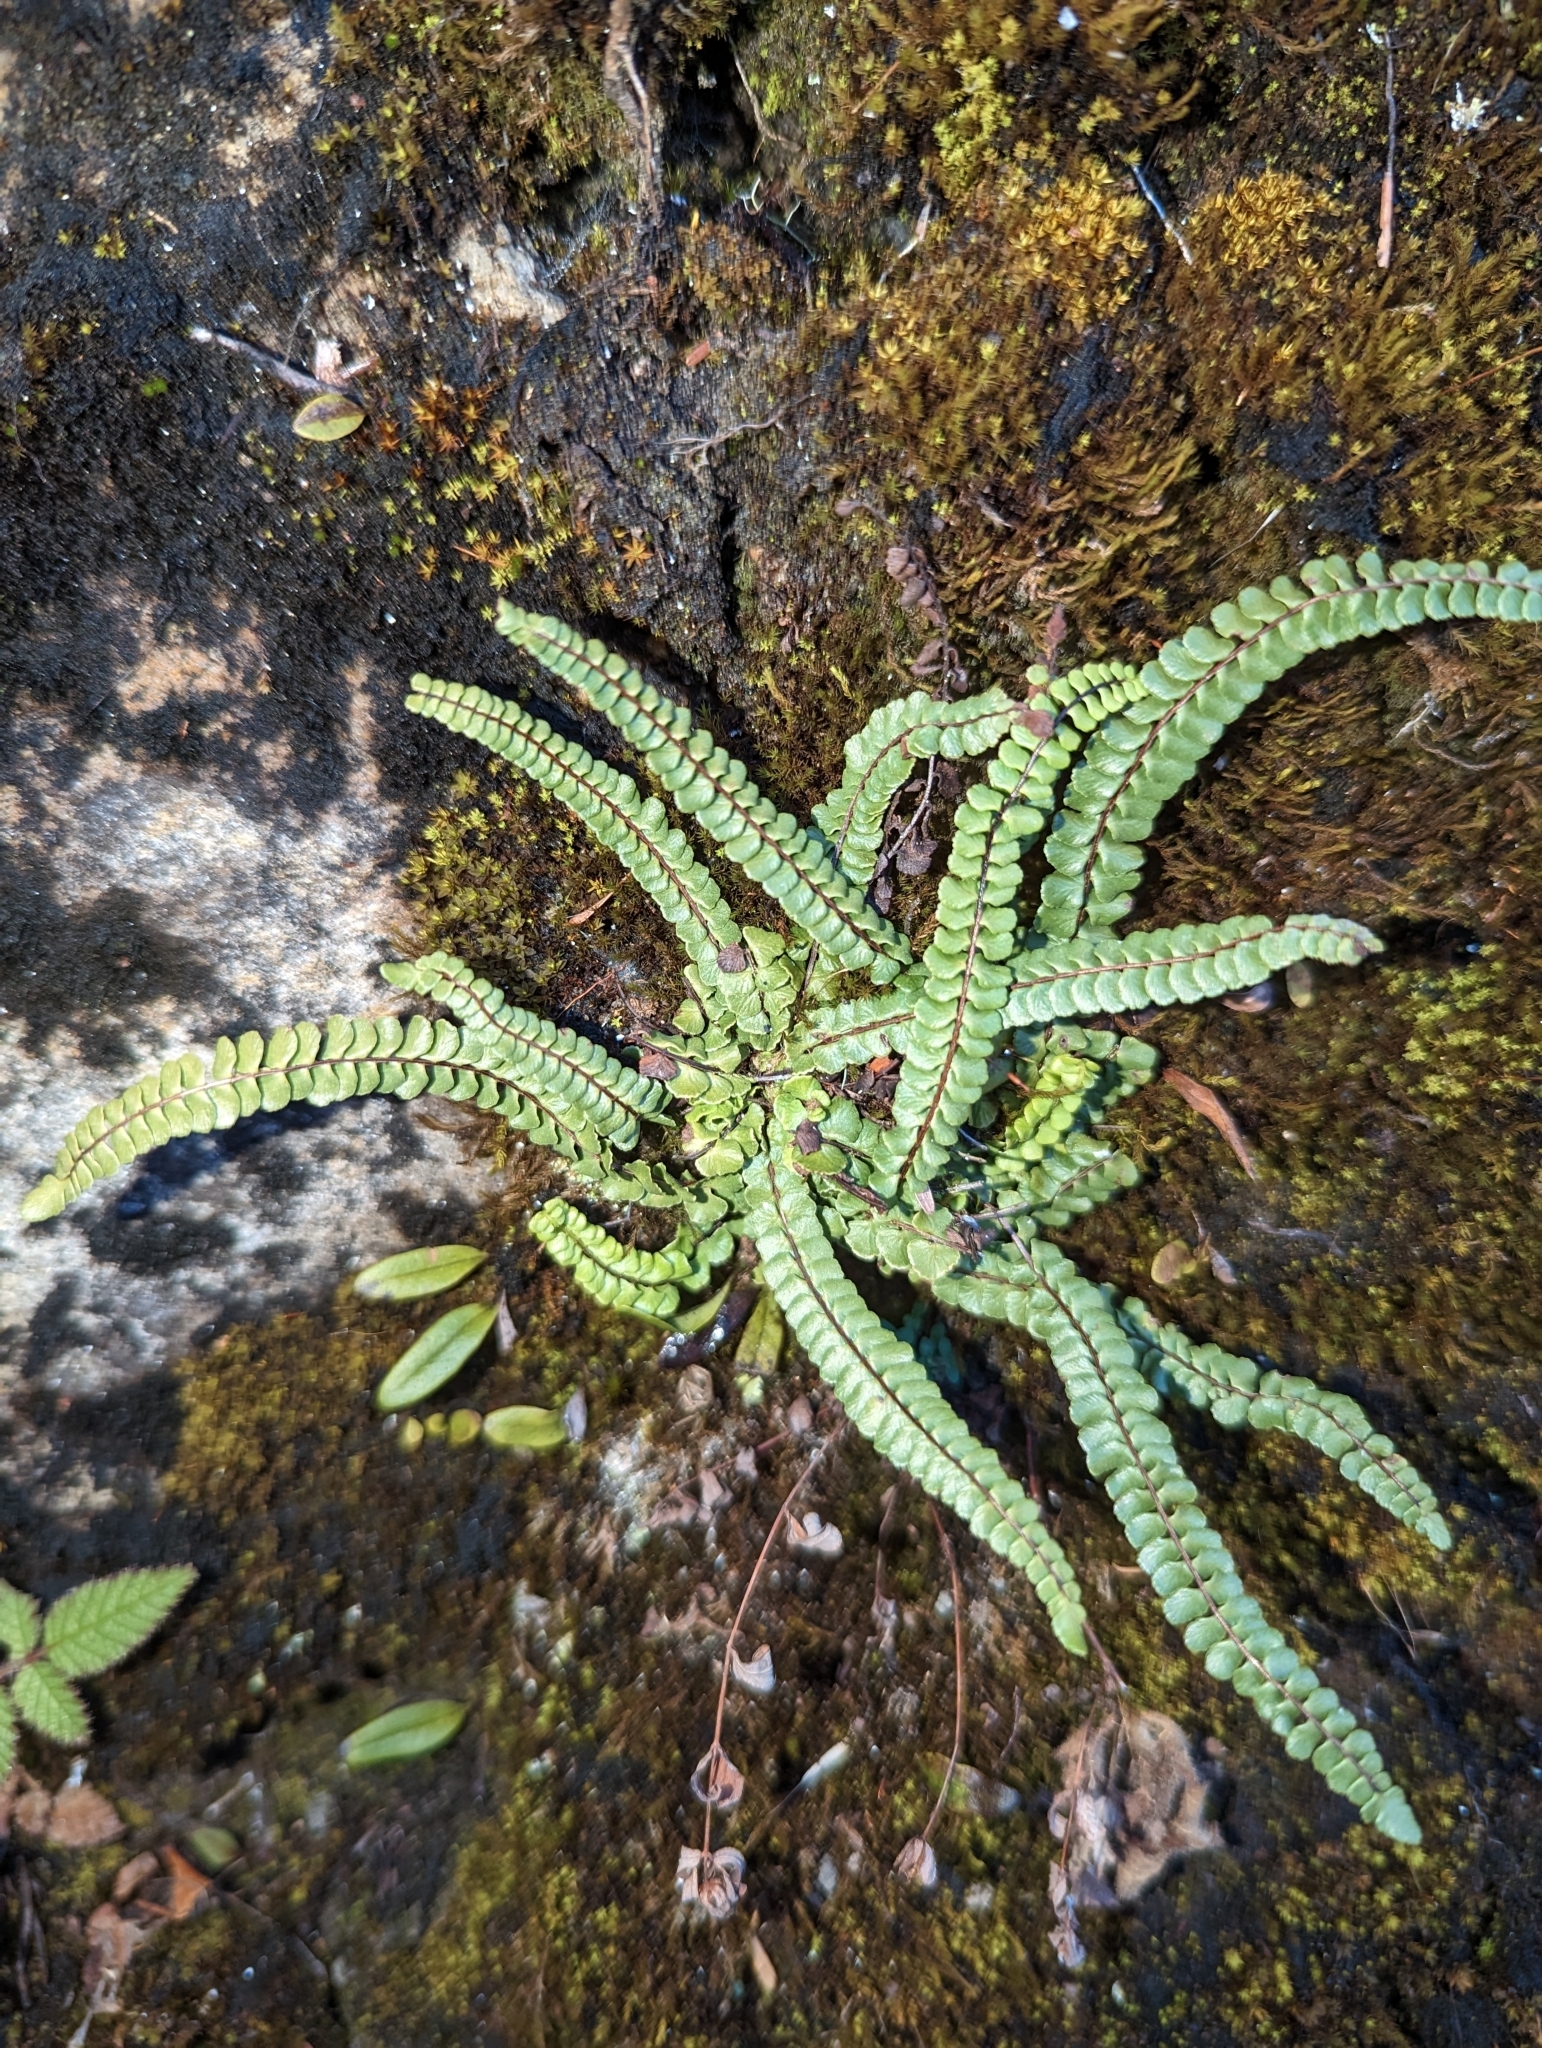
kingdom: Plantae
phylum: Tracheophyta
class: Polypodiopsida
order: Polypodiales
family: Aspleniaceae
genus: Asplenium
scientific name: Asplenium trichomanes
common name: Maidenhair spleenwort
